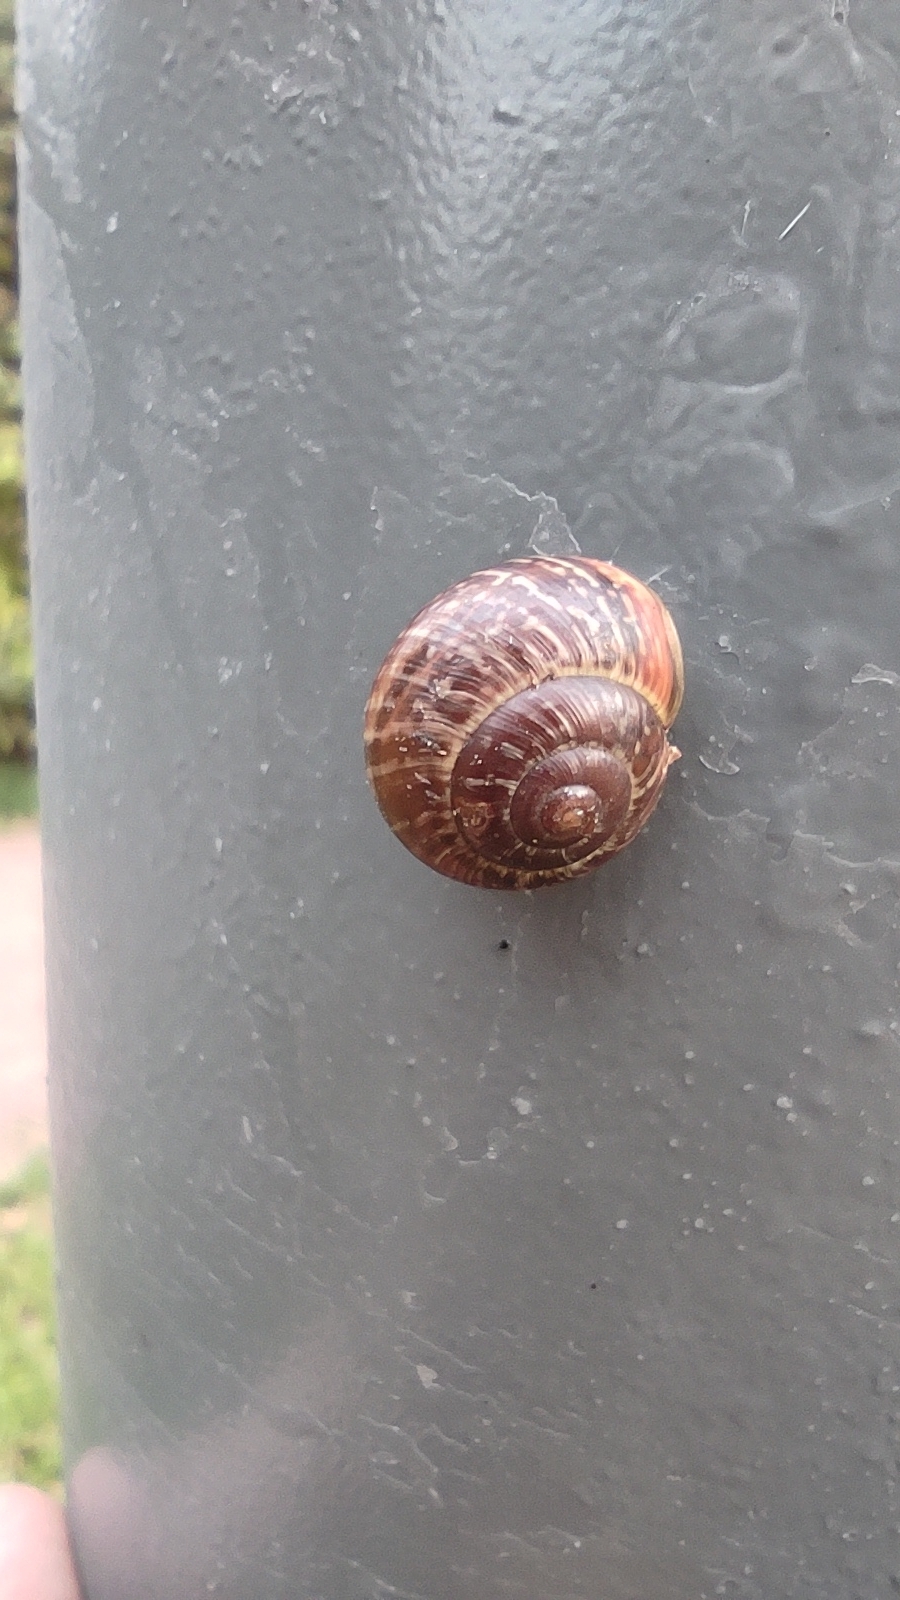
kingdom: Animalia
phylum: Mollusca
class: Gastropoda
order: Stylommatophora
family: Helicidae
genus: Arianta
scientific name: Arianta arbustorum
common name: Copse snail
